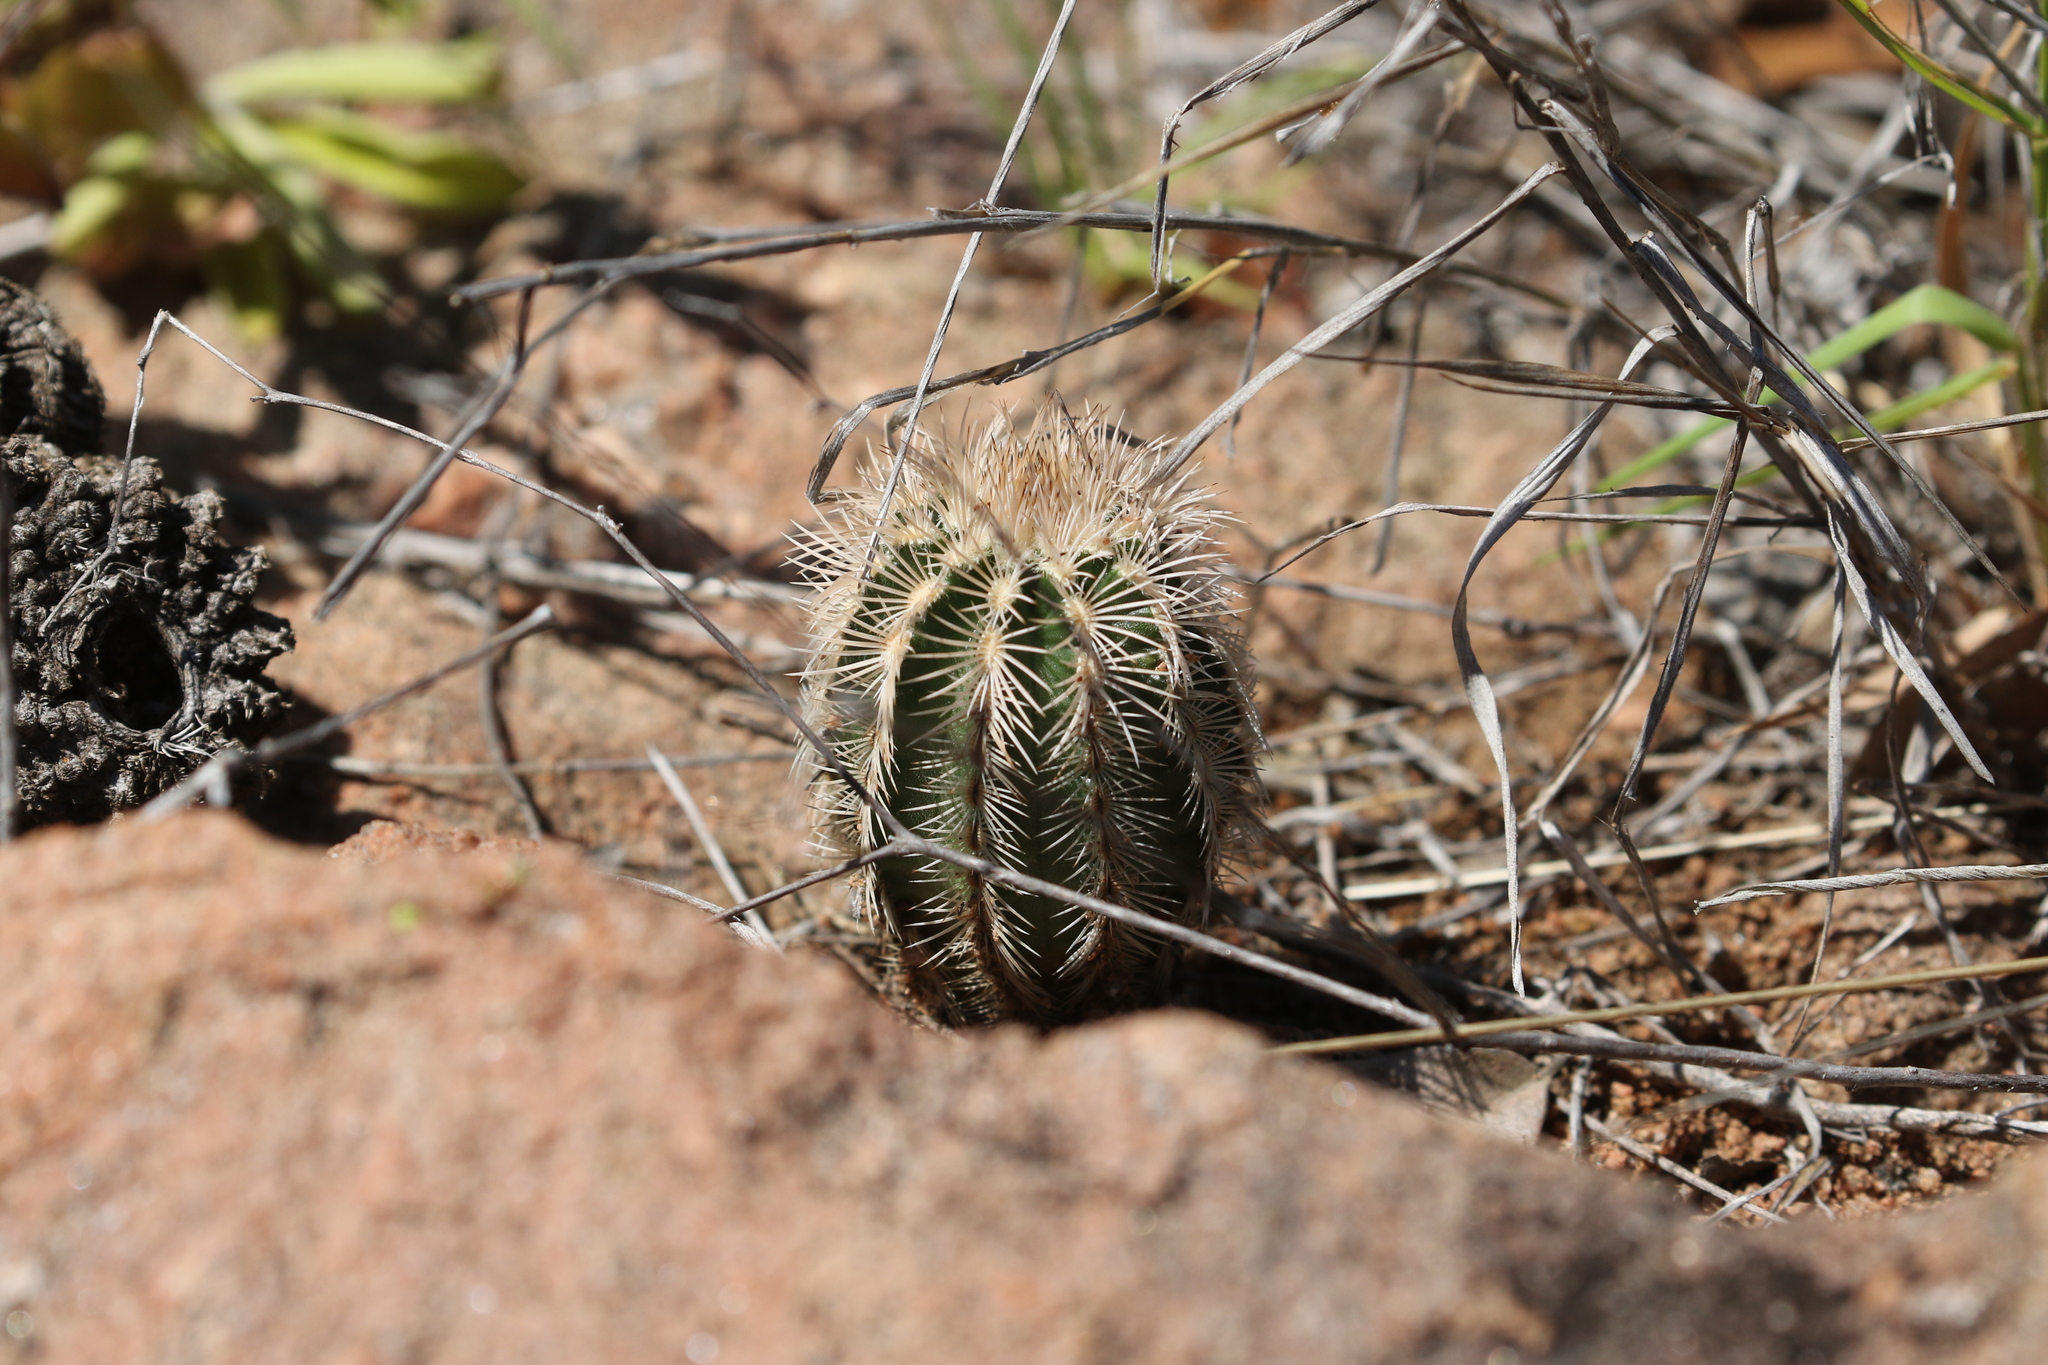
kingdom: Plantae
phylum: Tracheophyta
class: Magnoliopsida
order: Caryophyllales
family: Cactaceae
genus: Echinocereus
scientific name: Echinocereus reichenbachii
